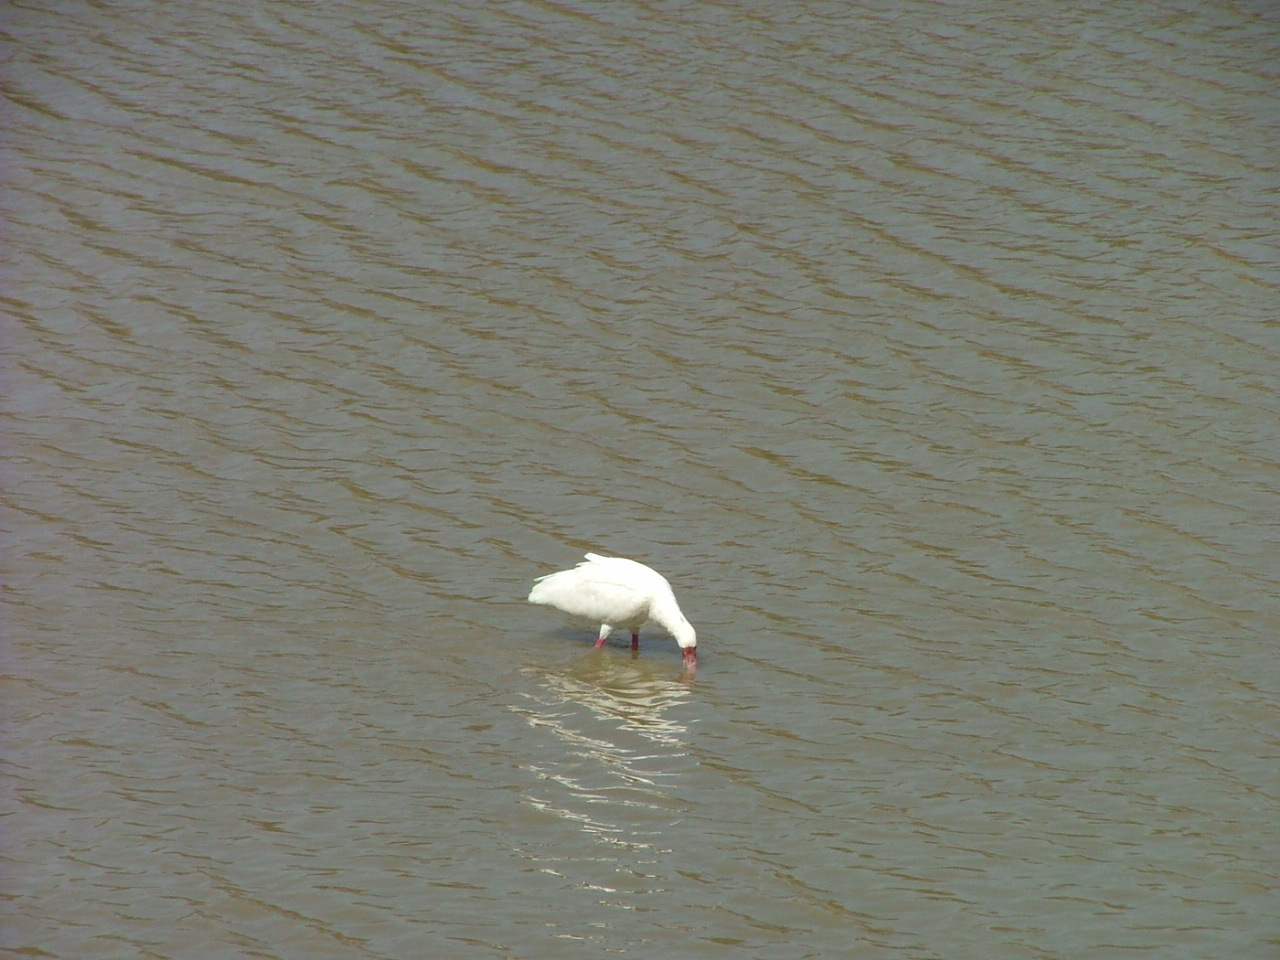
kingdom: Animalia
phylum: Chordata
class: Aves
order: Pelecaniformes
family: Threskiornithidae
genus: Platalea
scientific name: Platalea alba
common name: African spoonbill
